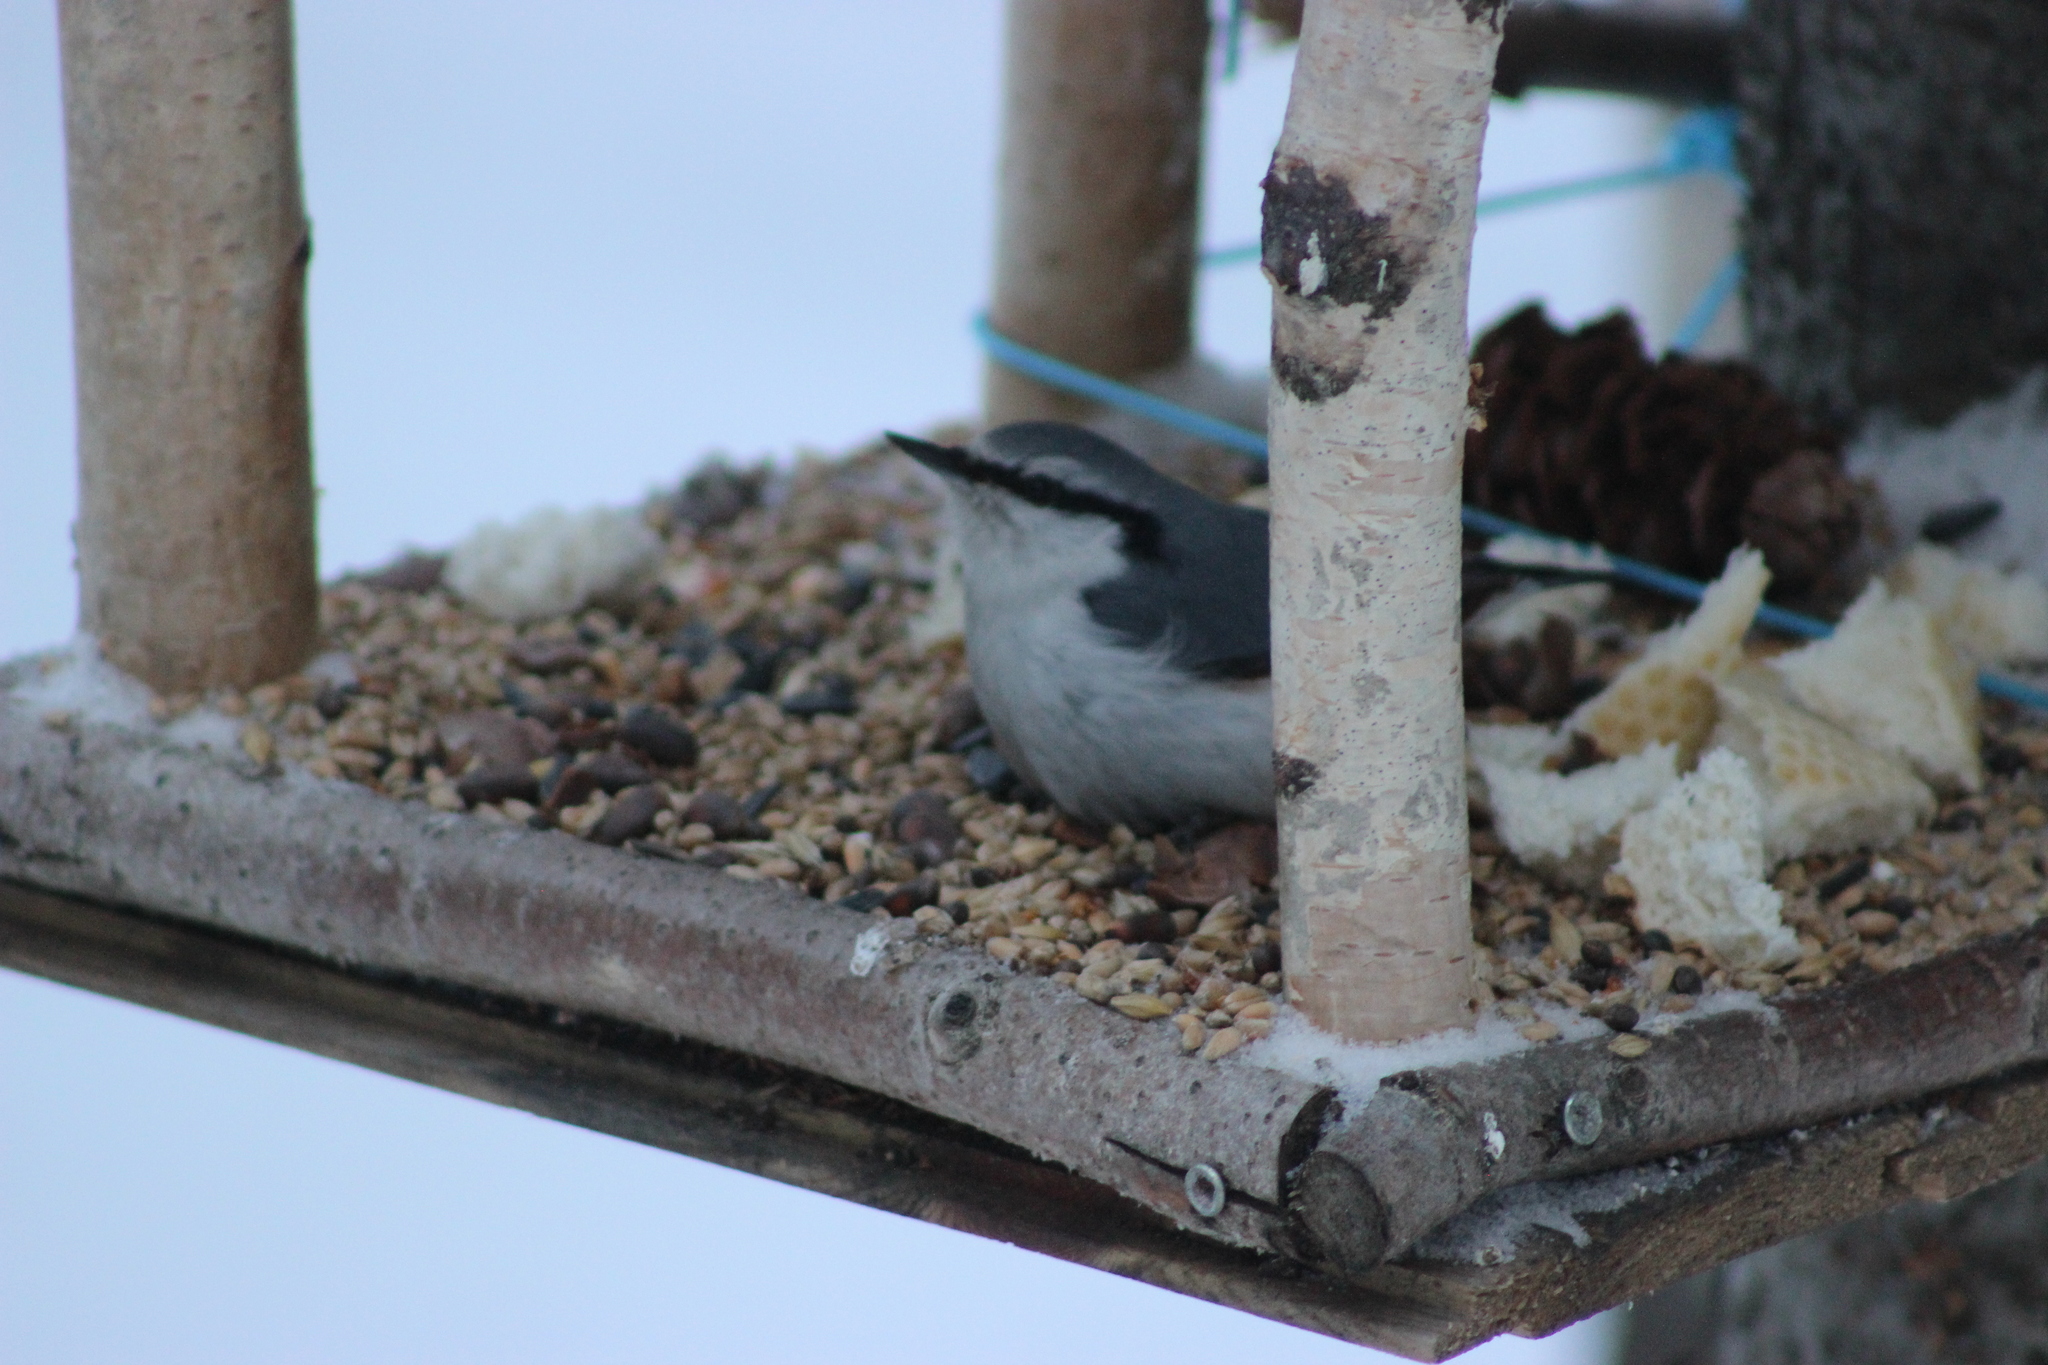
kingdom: Animalia
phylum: Chordata
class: Aves
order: Passeriformes
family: Sittidae
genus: Sitta
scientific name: Sitta europaea
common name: Eurasian nuthatch
